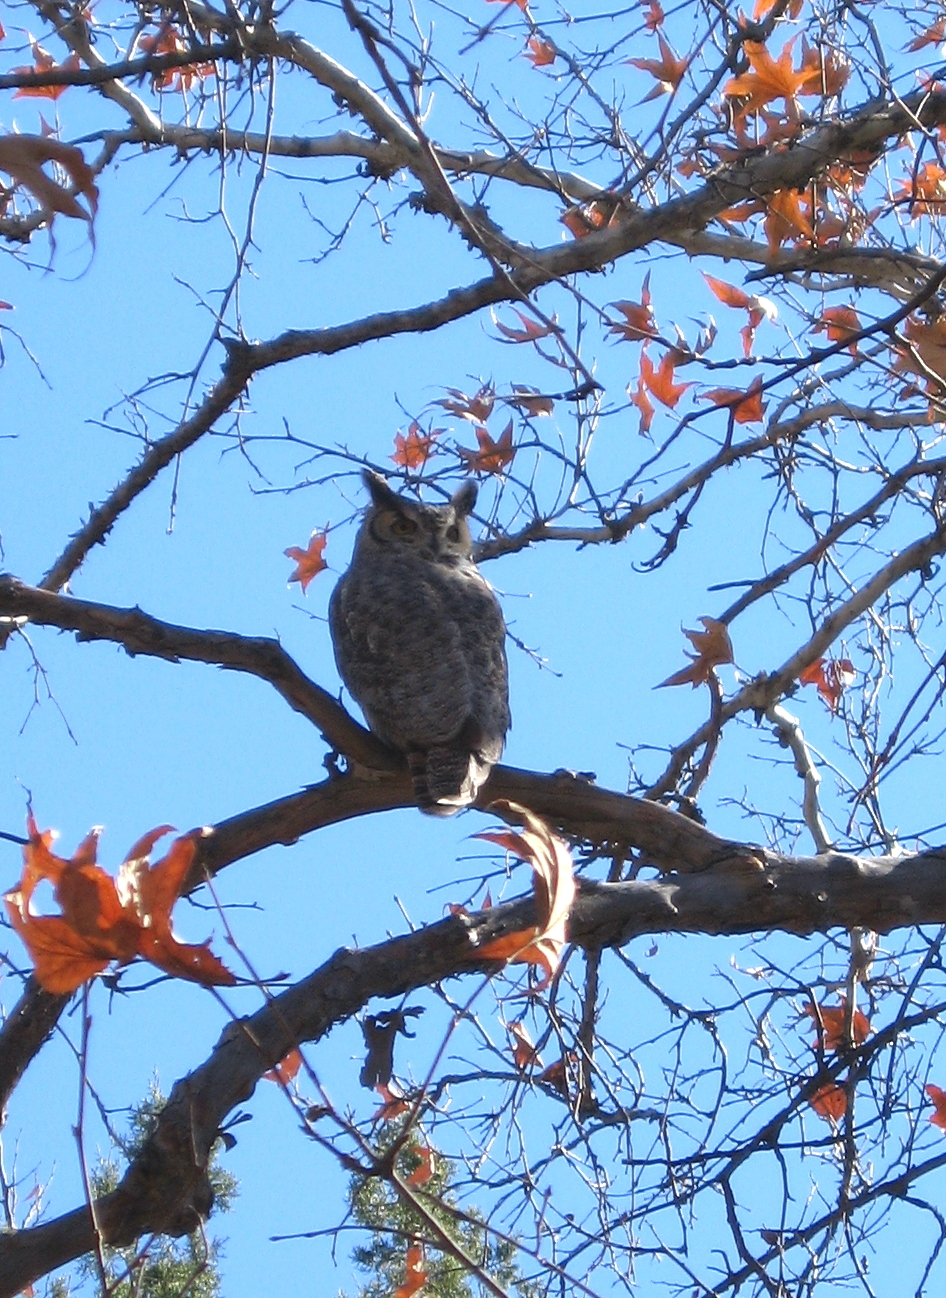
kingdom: Animalia
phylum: Chordata
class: Aves
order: Strigiformes
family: Strigidae
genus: Bubo
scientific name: Bubo virginianus
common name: Great horned owl
